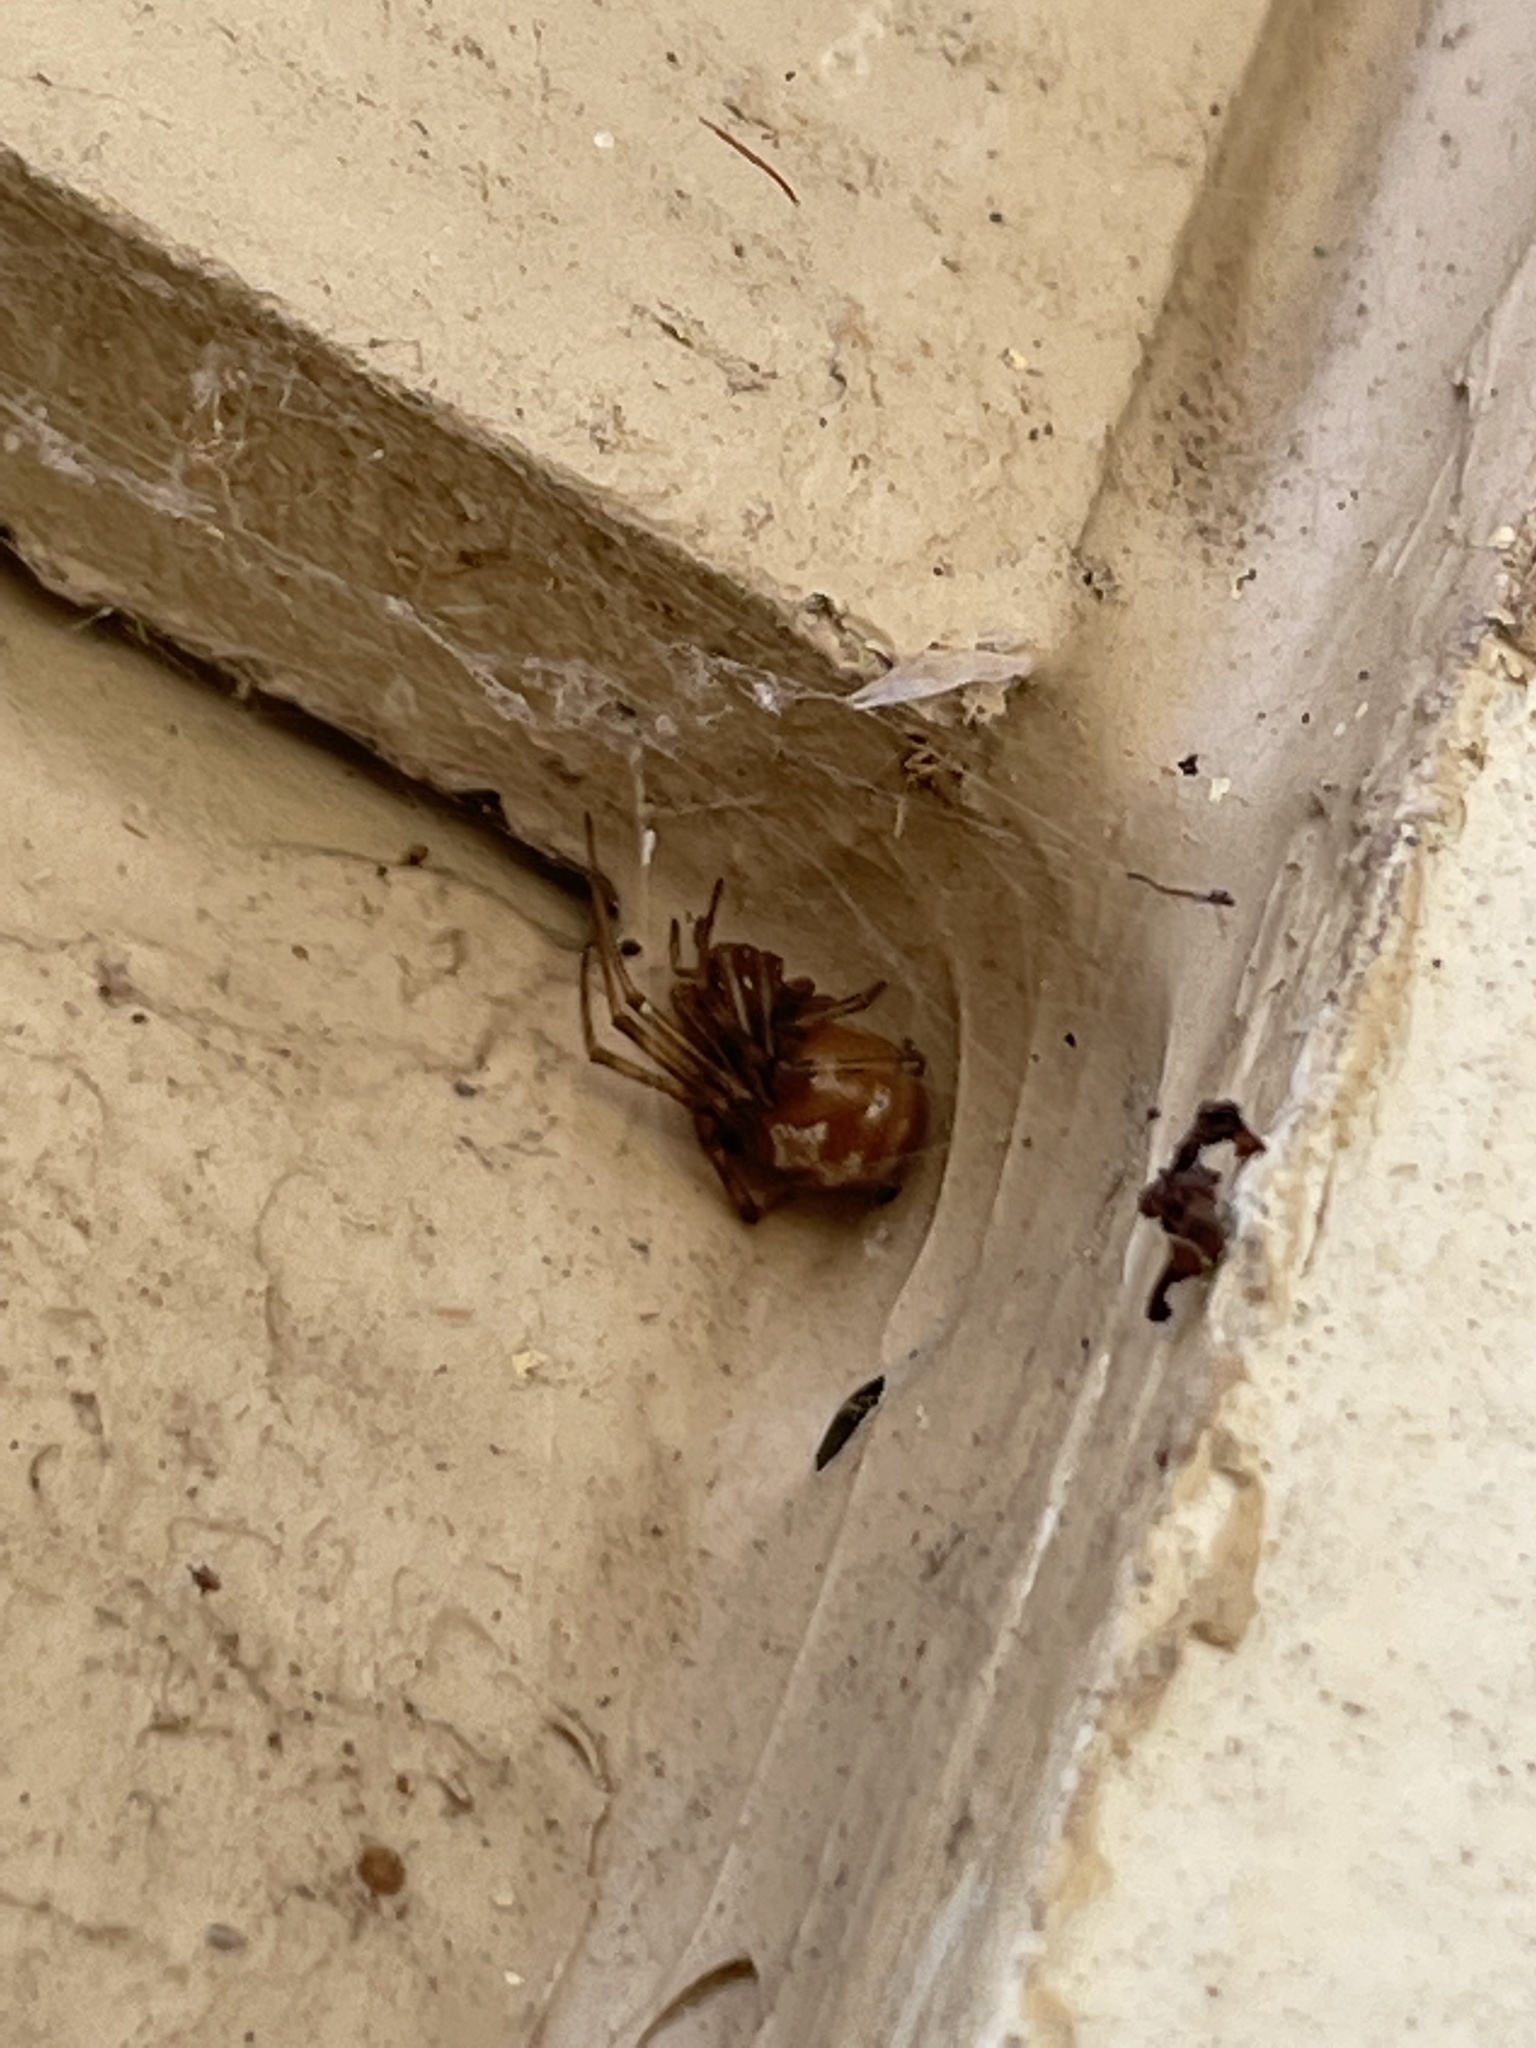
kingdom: Animalia
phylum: Arthropoda
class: Arachnida
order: Araneae
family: Theridiidae
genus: Steatoda
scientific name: Steatoda triangulosa
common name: Triangulate bud spider
